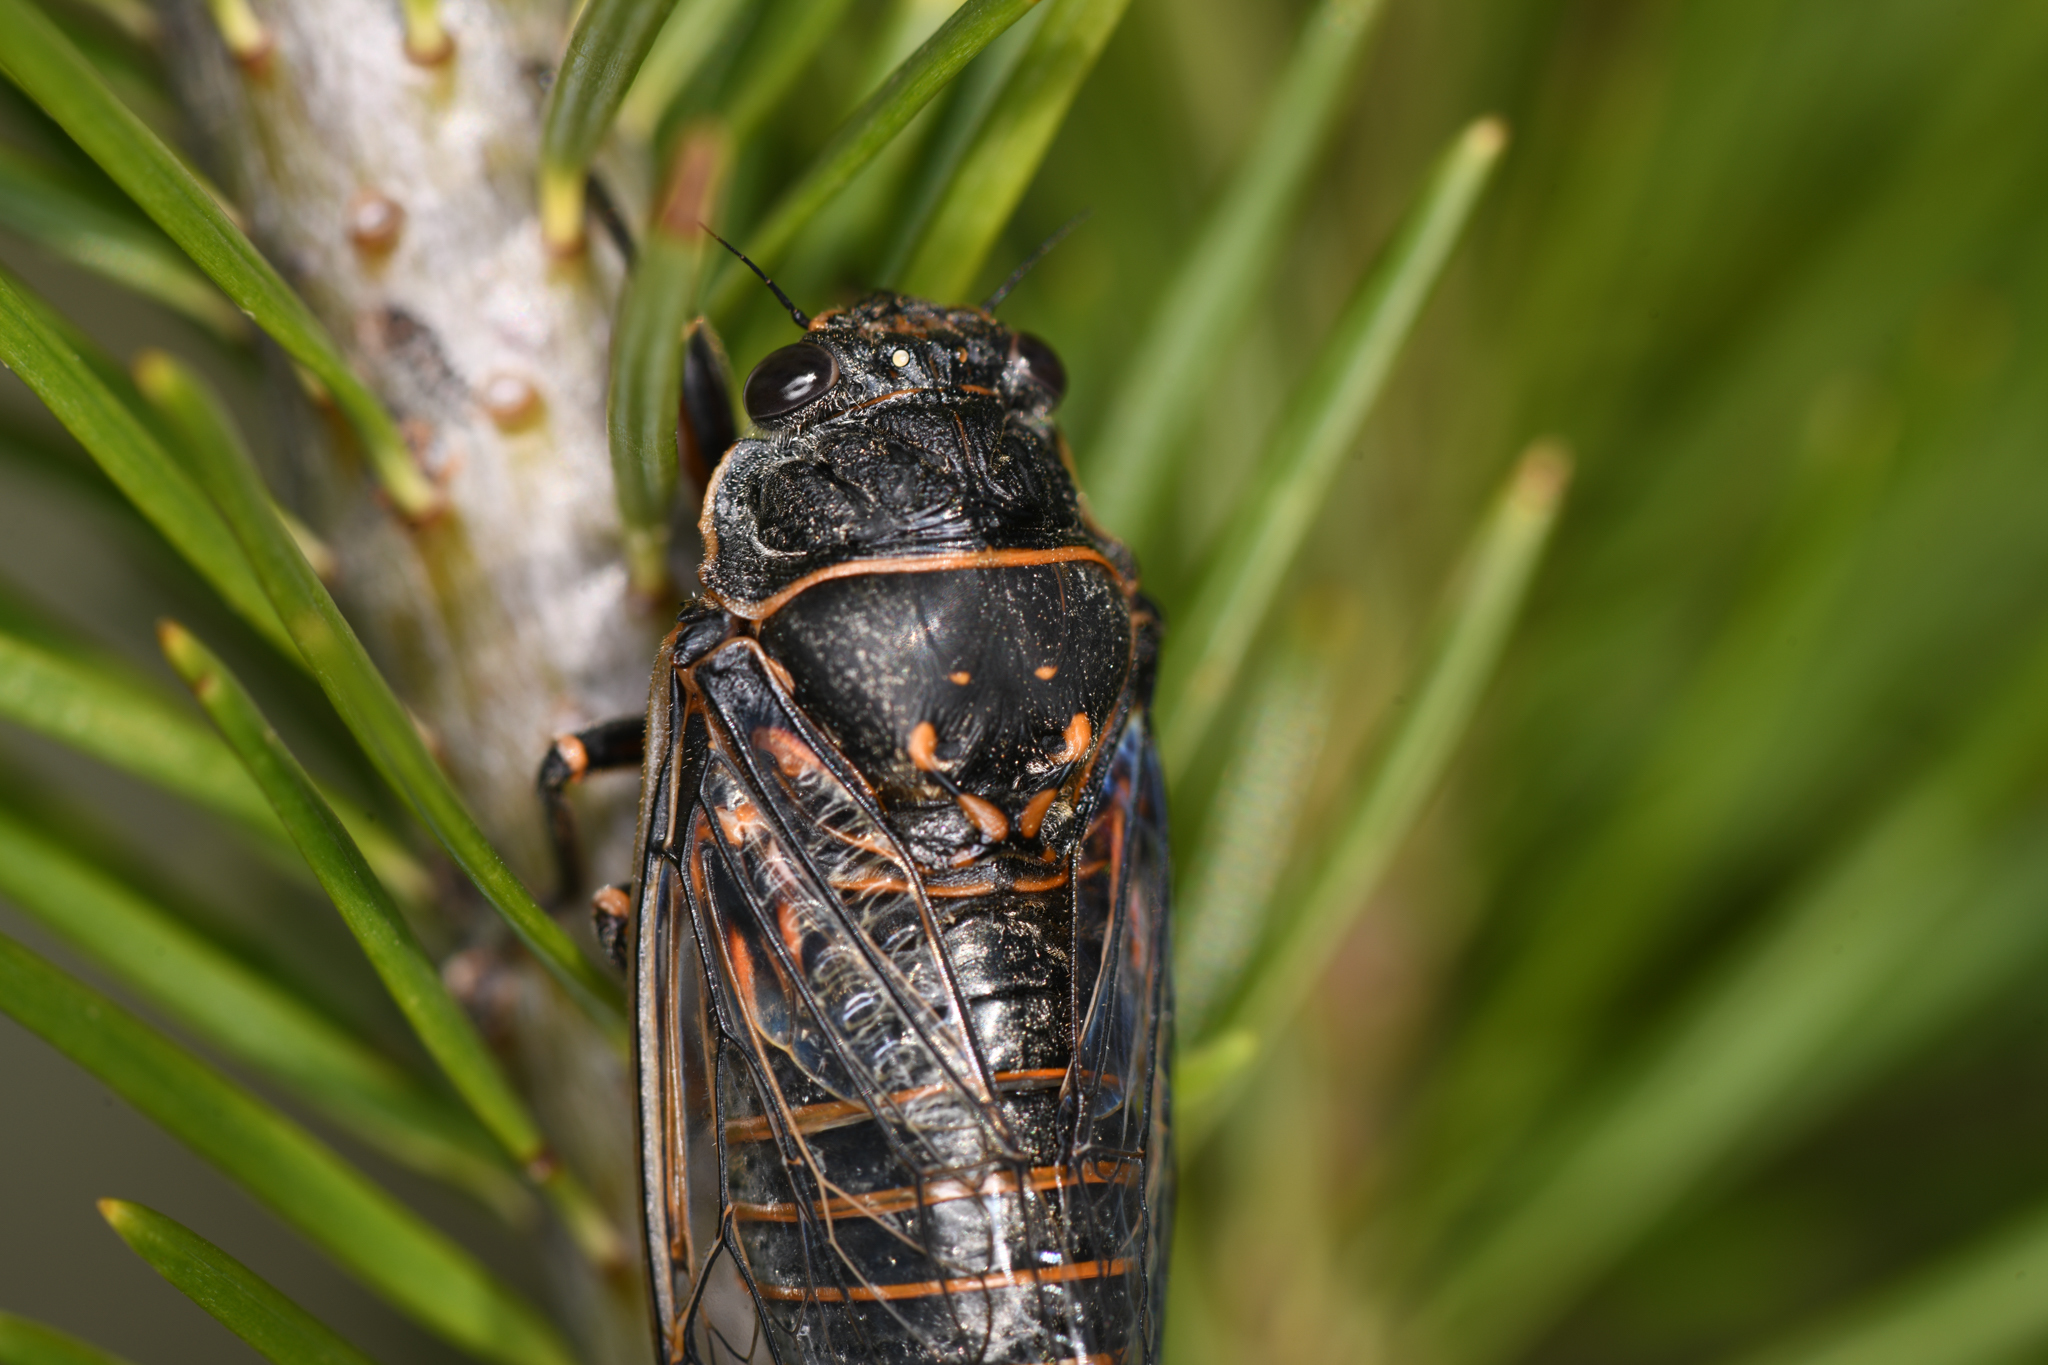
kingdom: Animalia
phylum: Arthropoda
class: Insecta
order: Hemiptera
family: Cicadidae
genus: Okanagana
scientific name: Okanagana occidentalis
